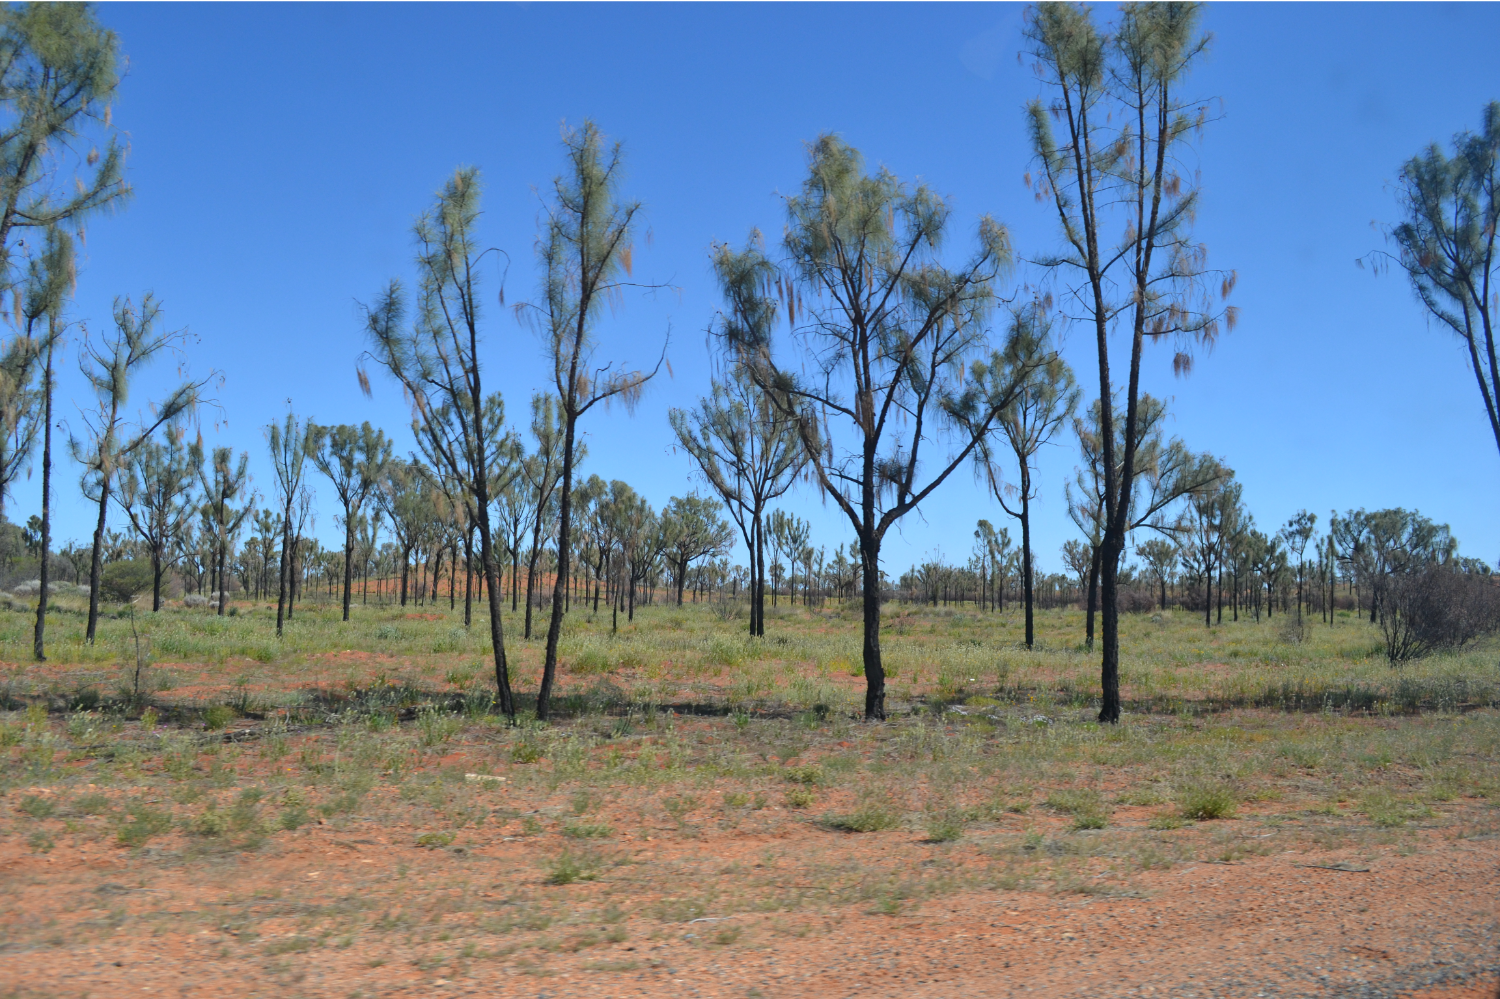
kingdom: Plantae
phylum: Tracheophyta
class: Magnoliopsida
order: Fagales
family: Casuarinaceae
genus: Allocasuarina
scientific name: Allocasuarina decaisneana
